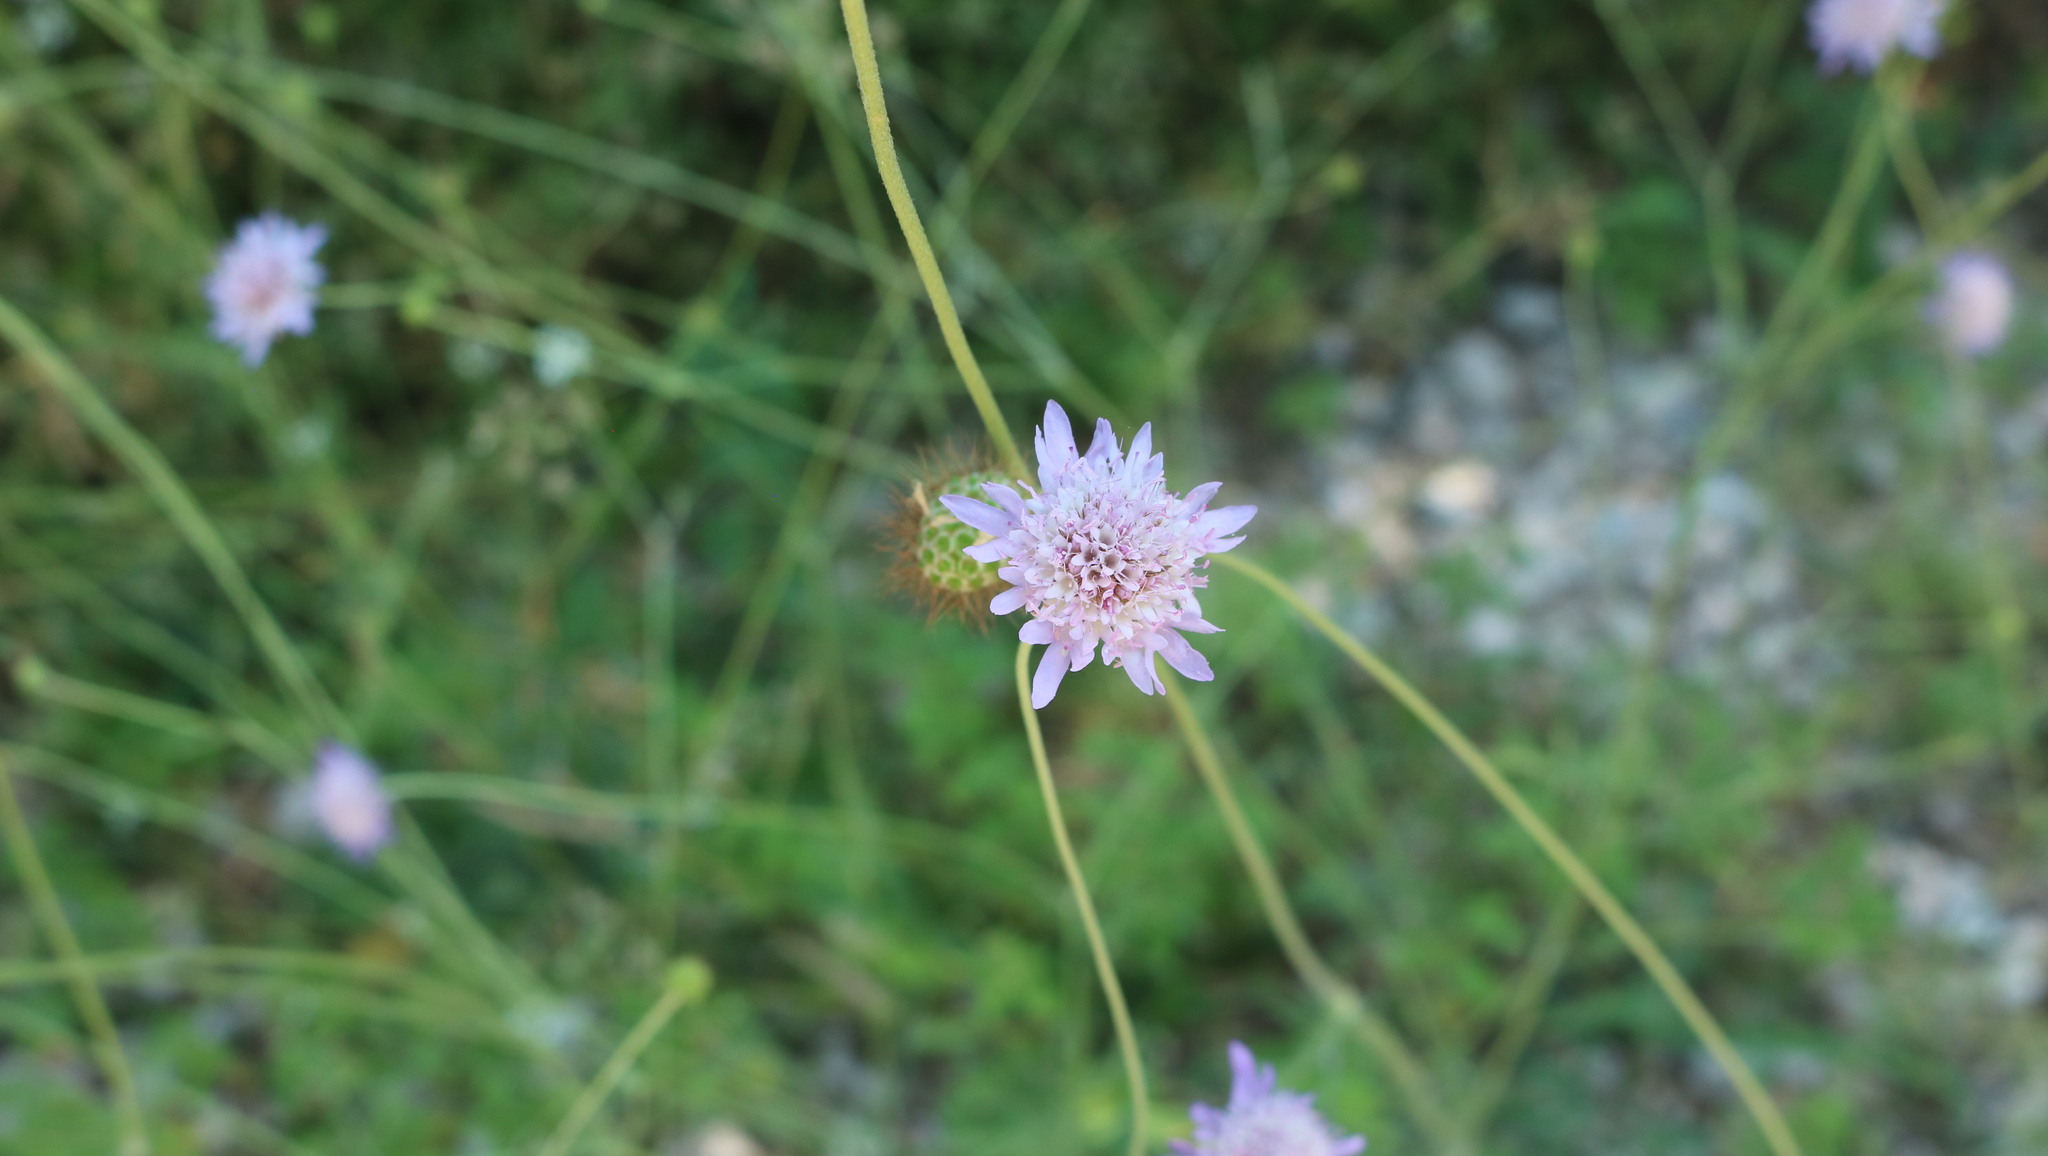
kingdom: Plantae
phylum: Tracheophyta
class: Magnoliopsida
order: Dipsacales
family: Caprifoliaceae
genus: Sixalix
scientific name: Sixalix atropurpurea
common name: Sweet scabious
